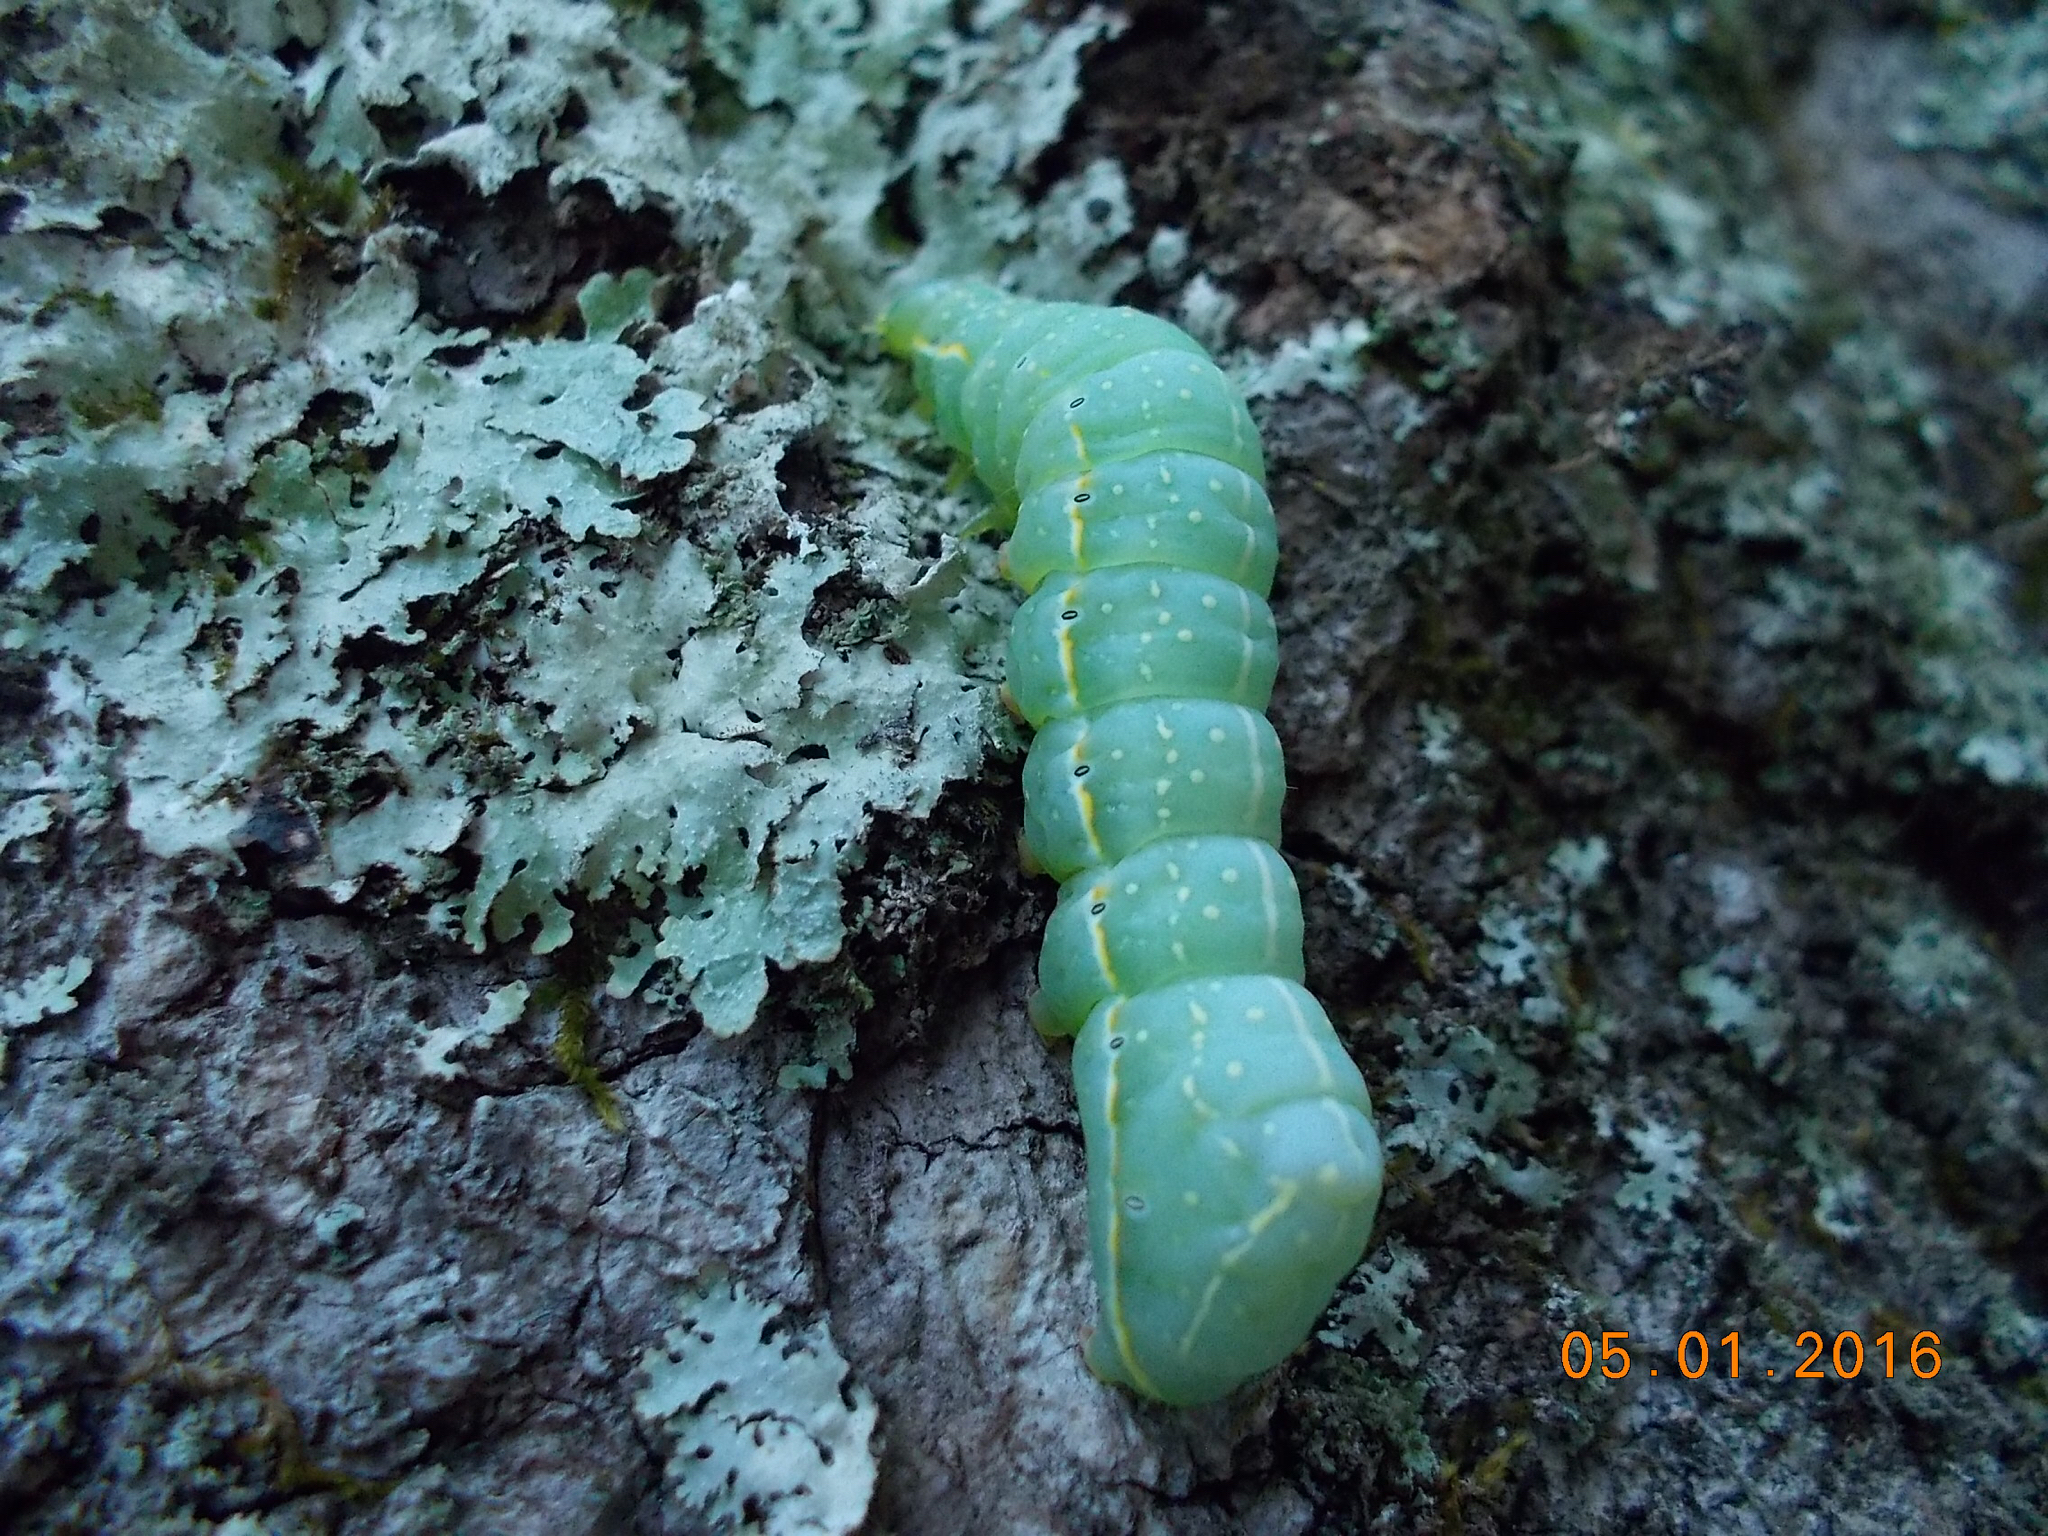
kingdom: Animalia
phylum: Arthropoda
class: Insecta
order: Lepidoptera
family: Noctuidae
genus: Amphipyra
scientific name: Amphipyra pyramidoides
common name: American copper underwing
